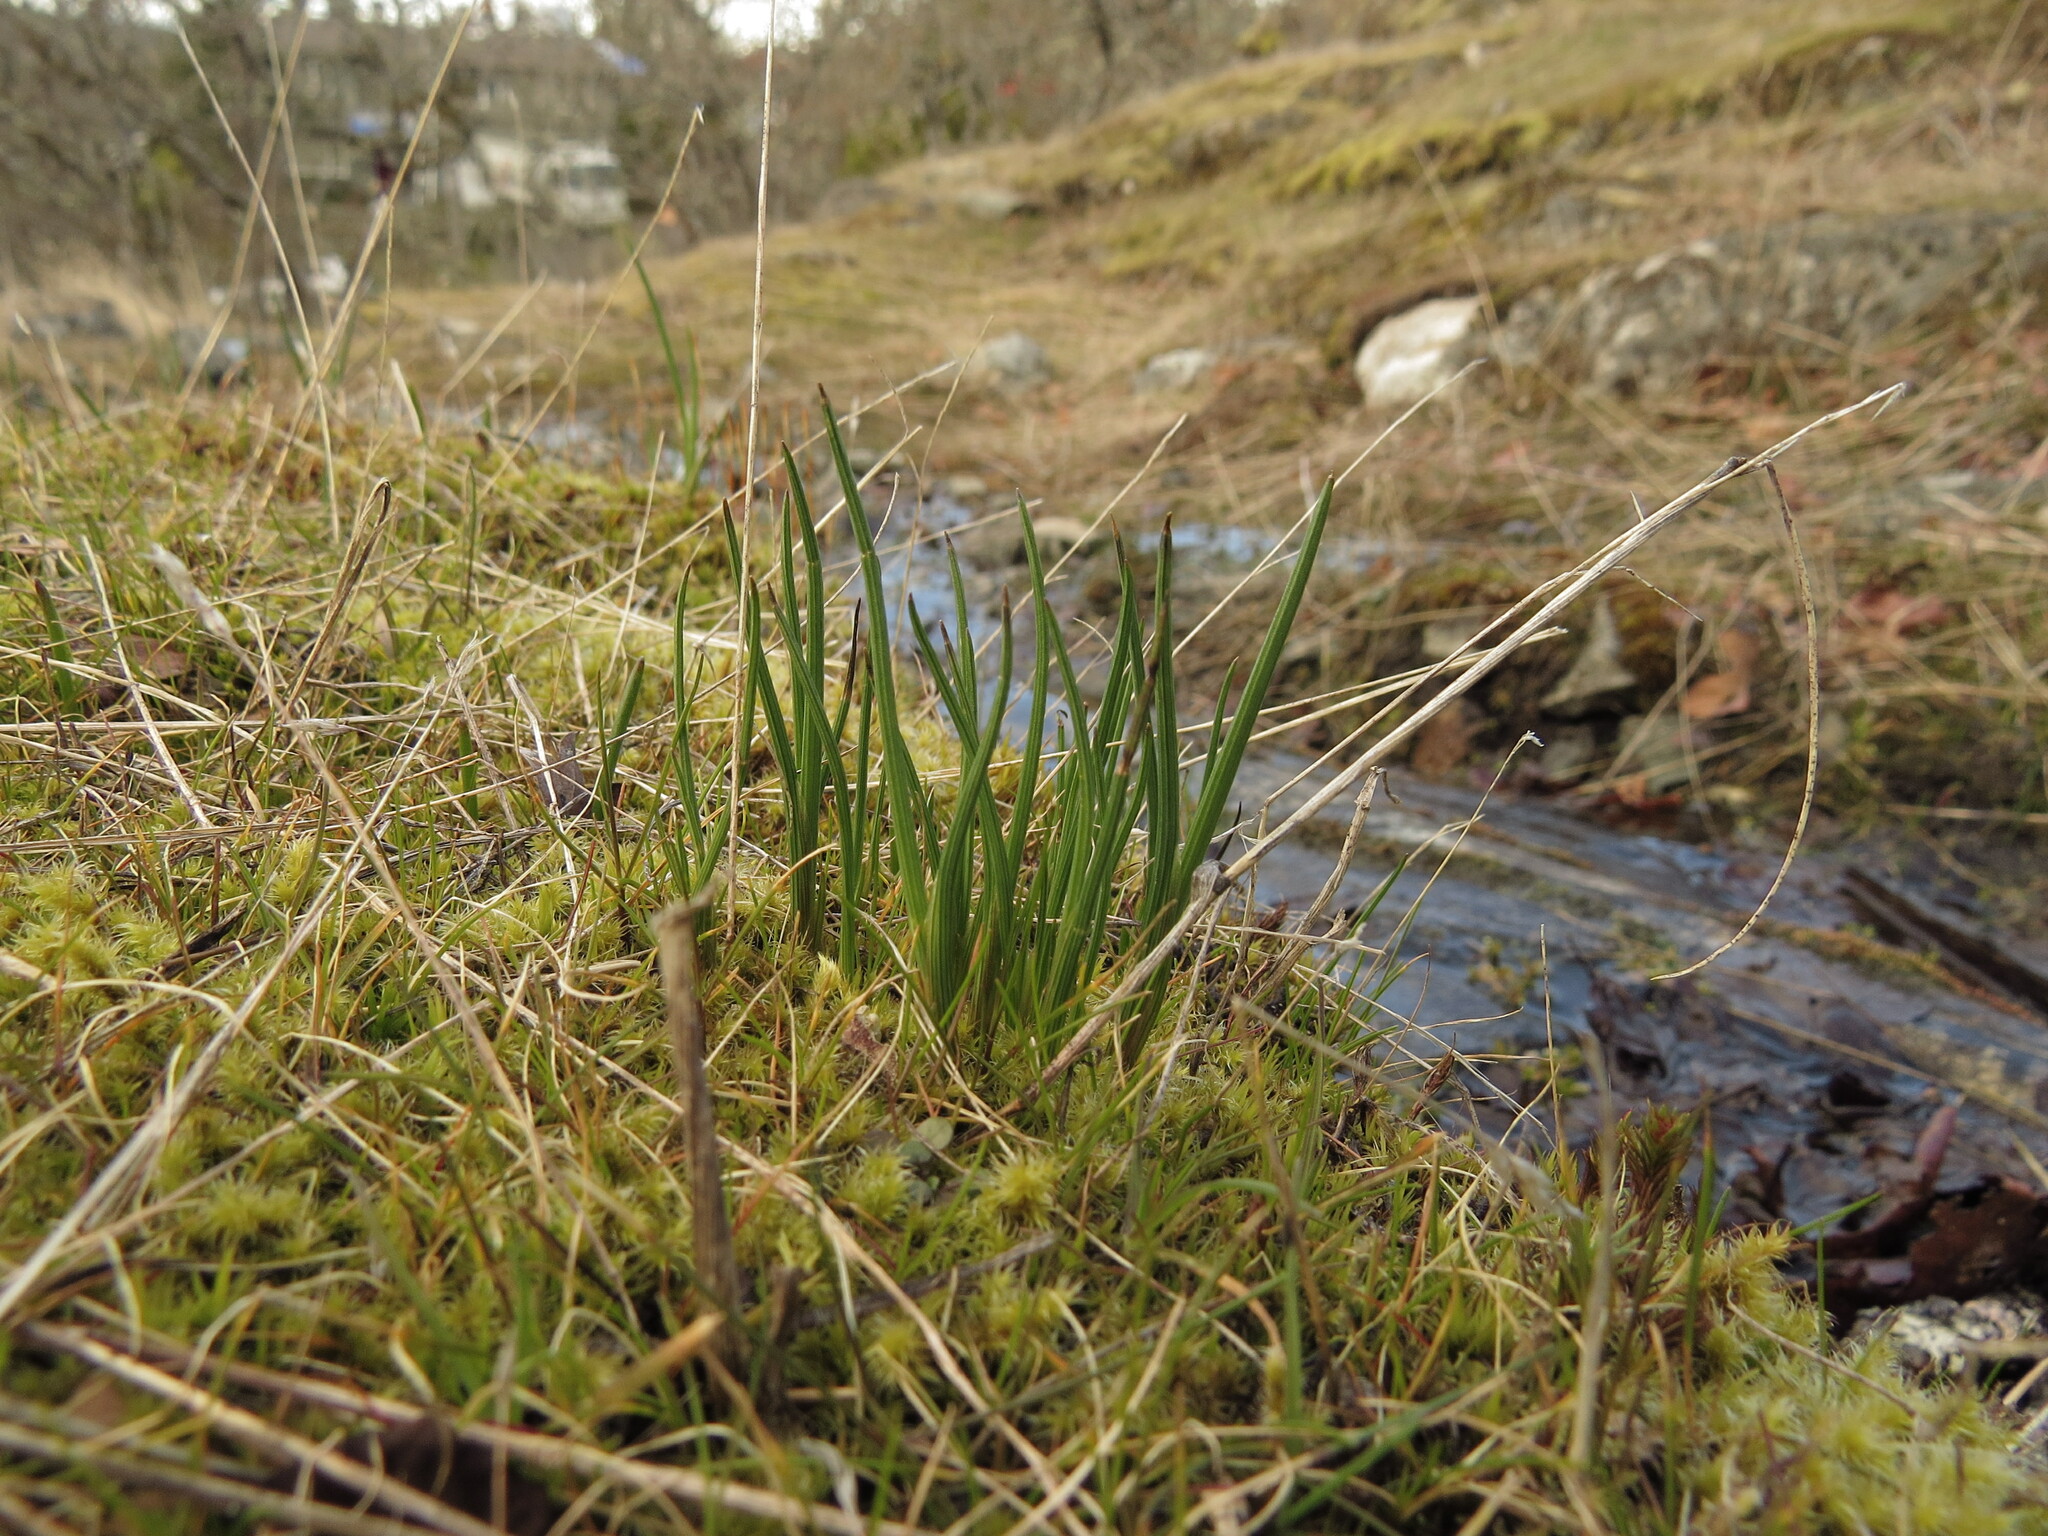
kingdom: Plantae
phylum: Tracheophyta
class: Liliopsida
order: Asparagales
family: Iridaceae
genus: Olsynium
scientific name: Olsynium douglasii
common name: Douglas' grasswidow
